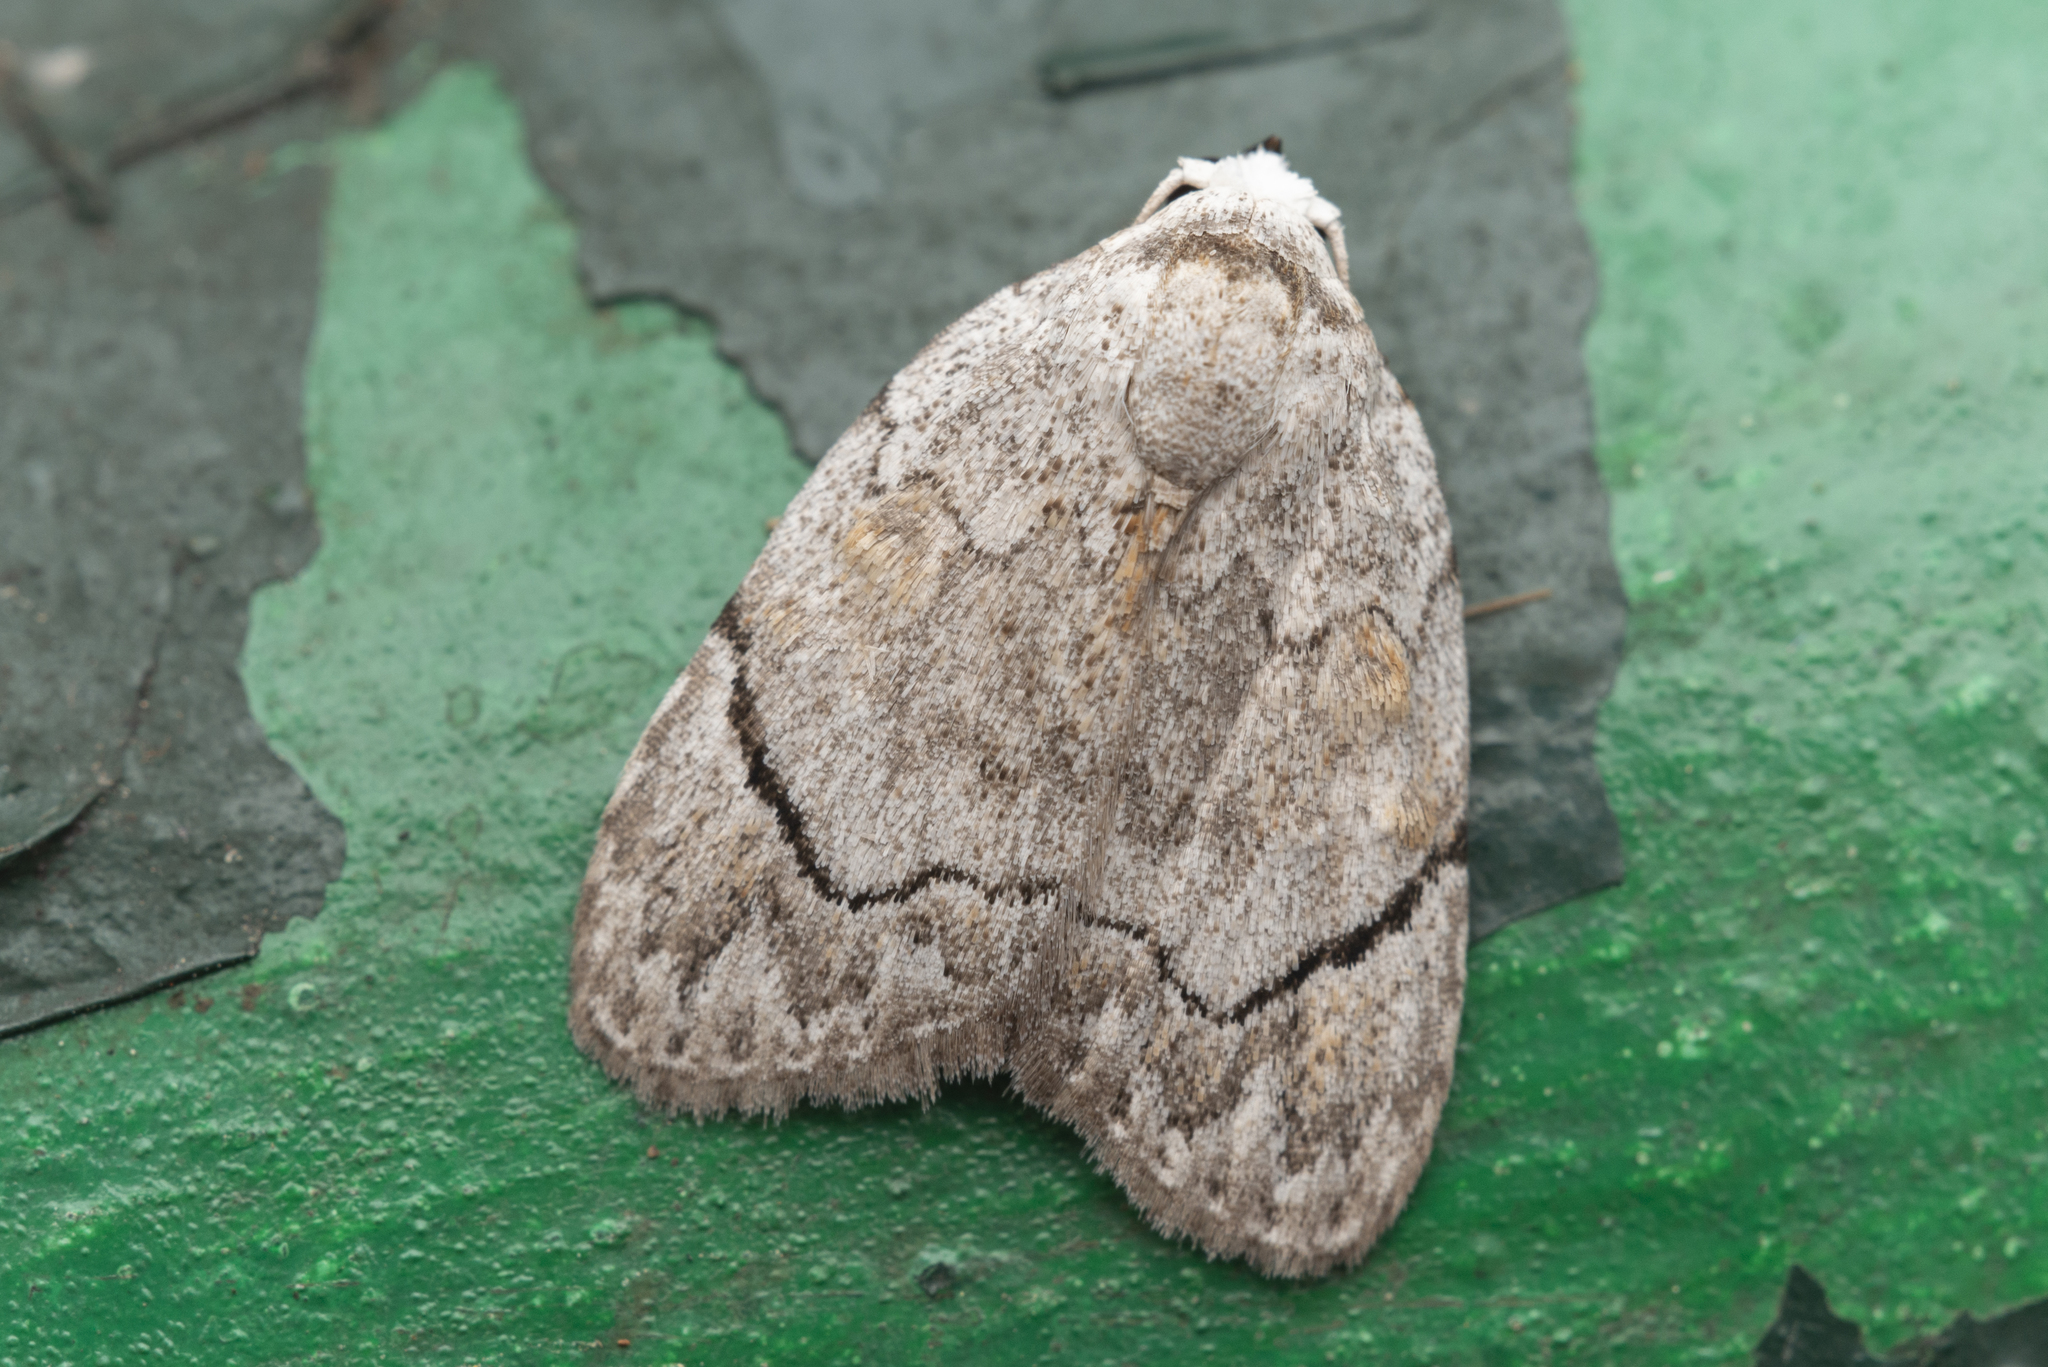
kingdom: Animalia
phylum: Arthropoda
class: Insecta
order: Lepidoptera
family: Nolidae
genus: Melanographia
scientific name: Melanographia flexilineata
